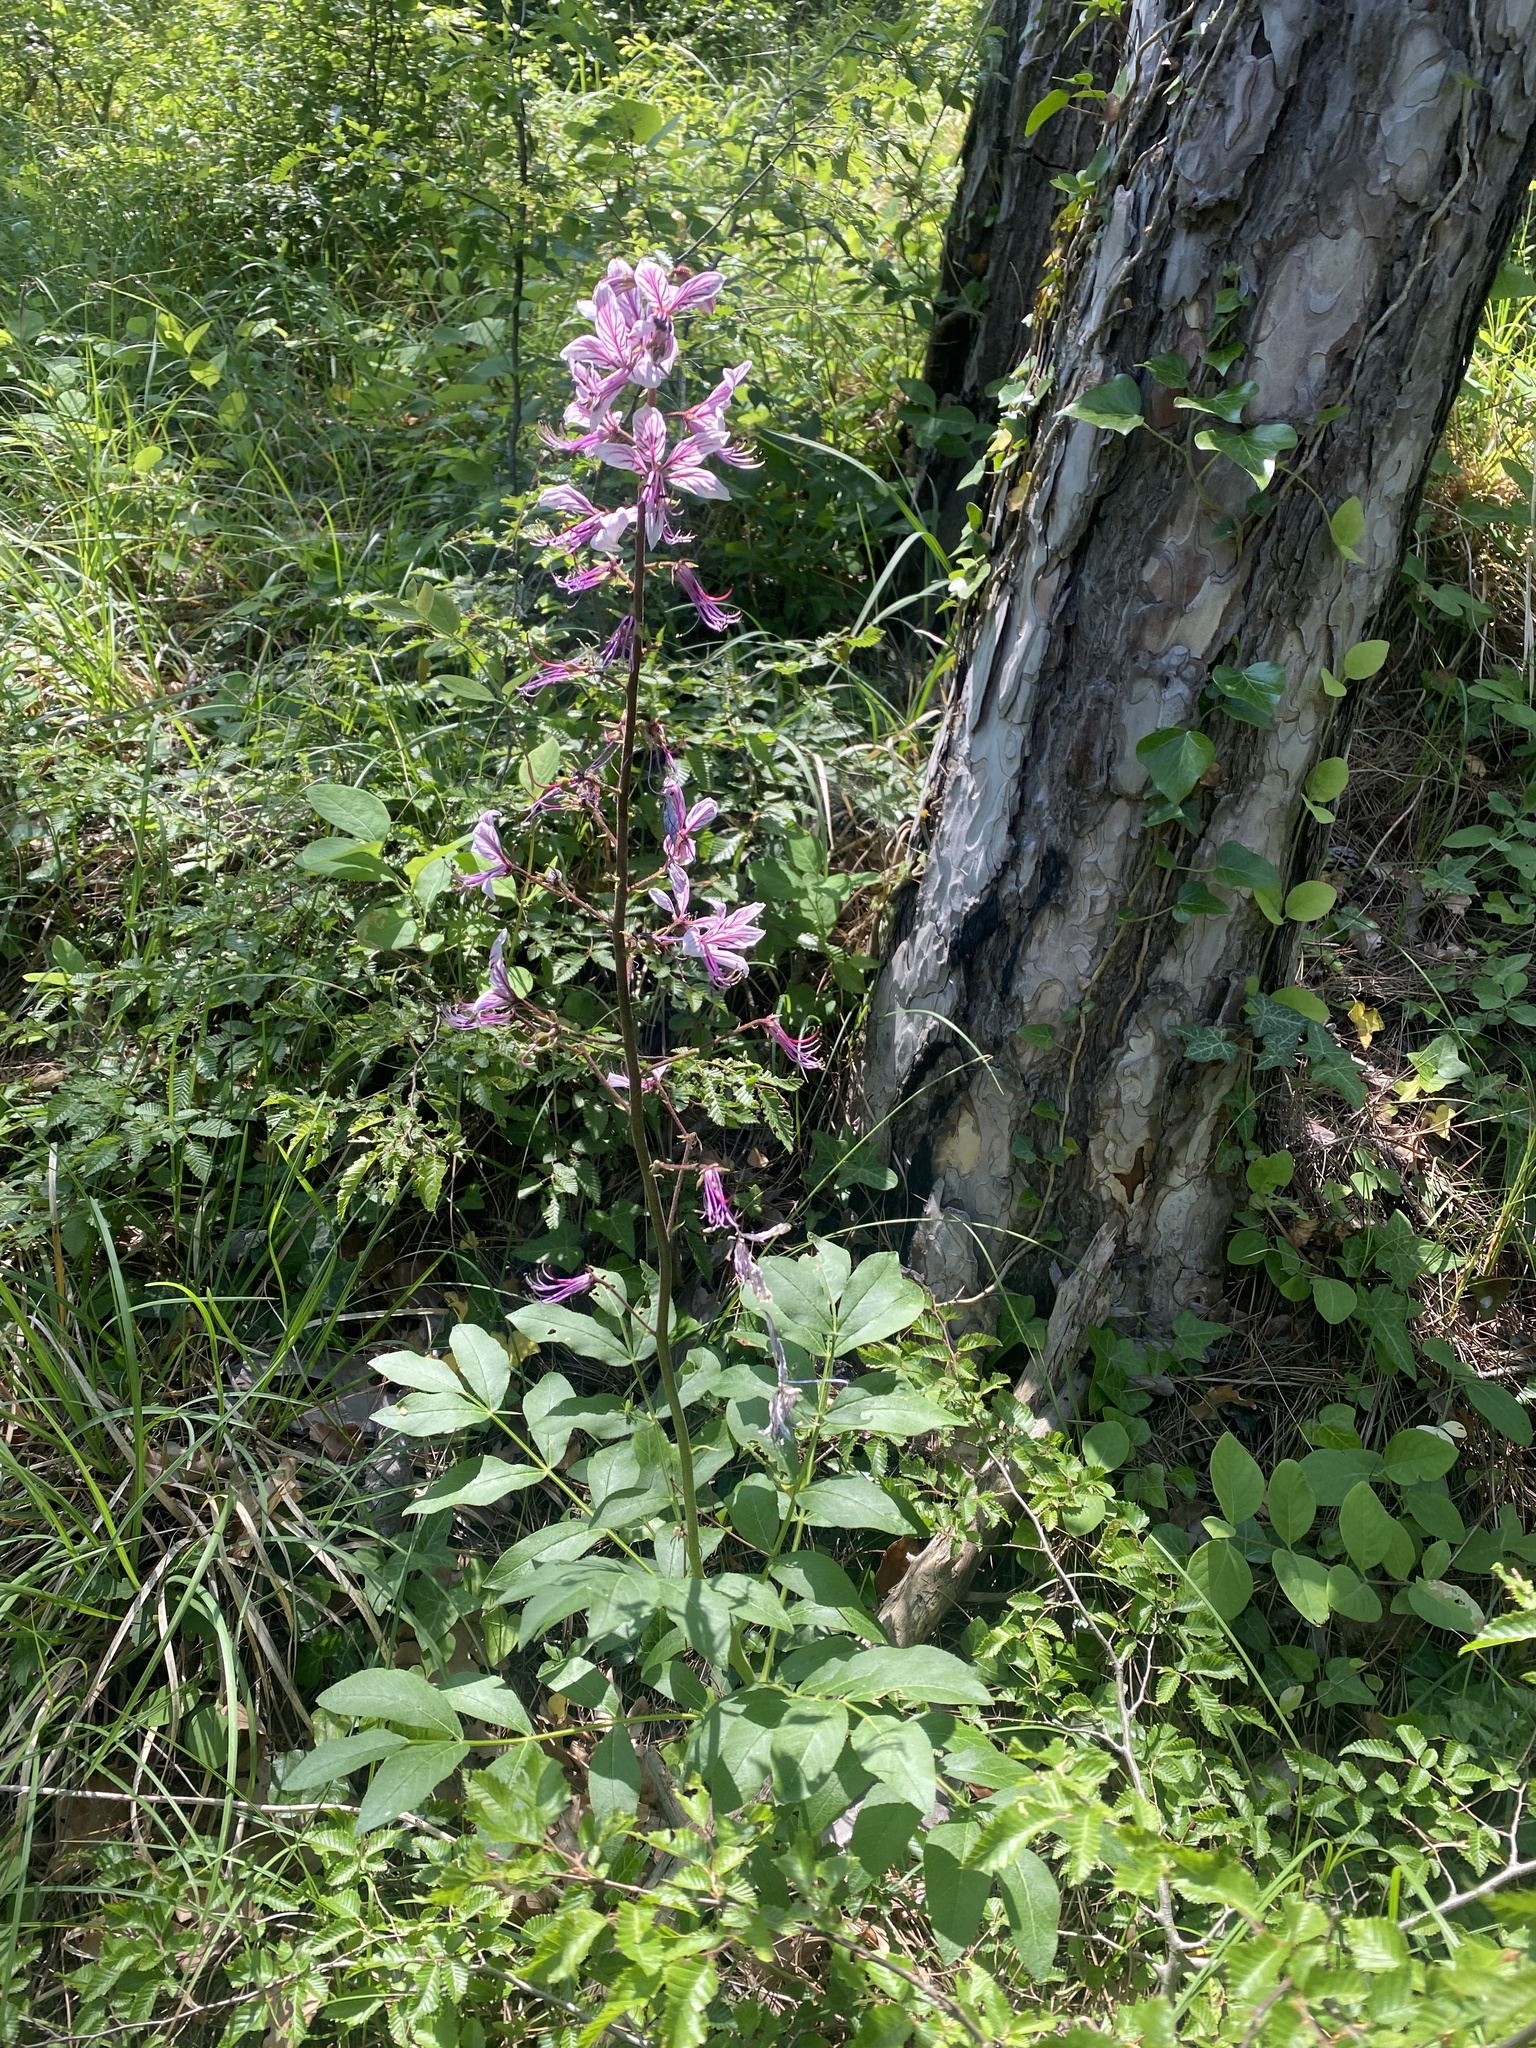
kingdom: Plantae
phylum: Tracheophyta
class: Magnoliopsida
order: Sapindales
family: Rutaceae
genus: Dictamnus
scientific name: Dictamnus albus
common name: Gasplant
